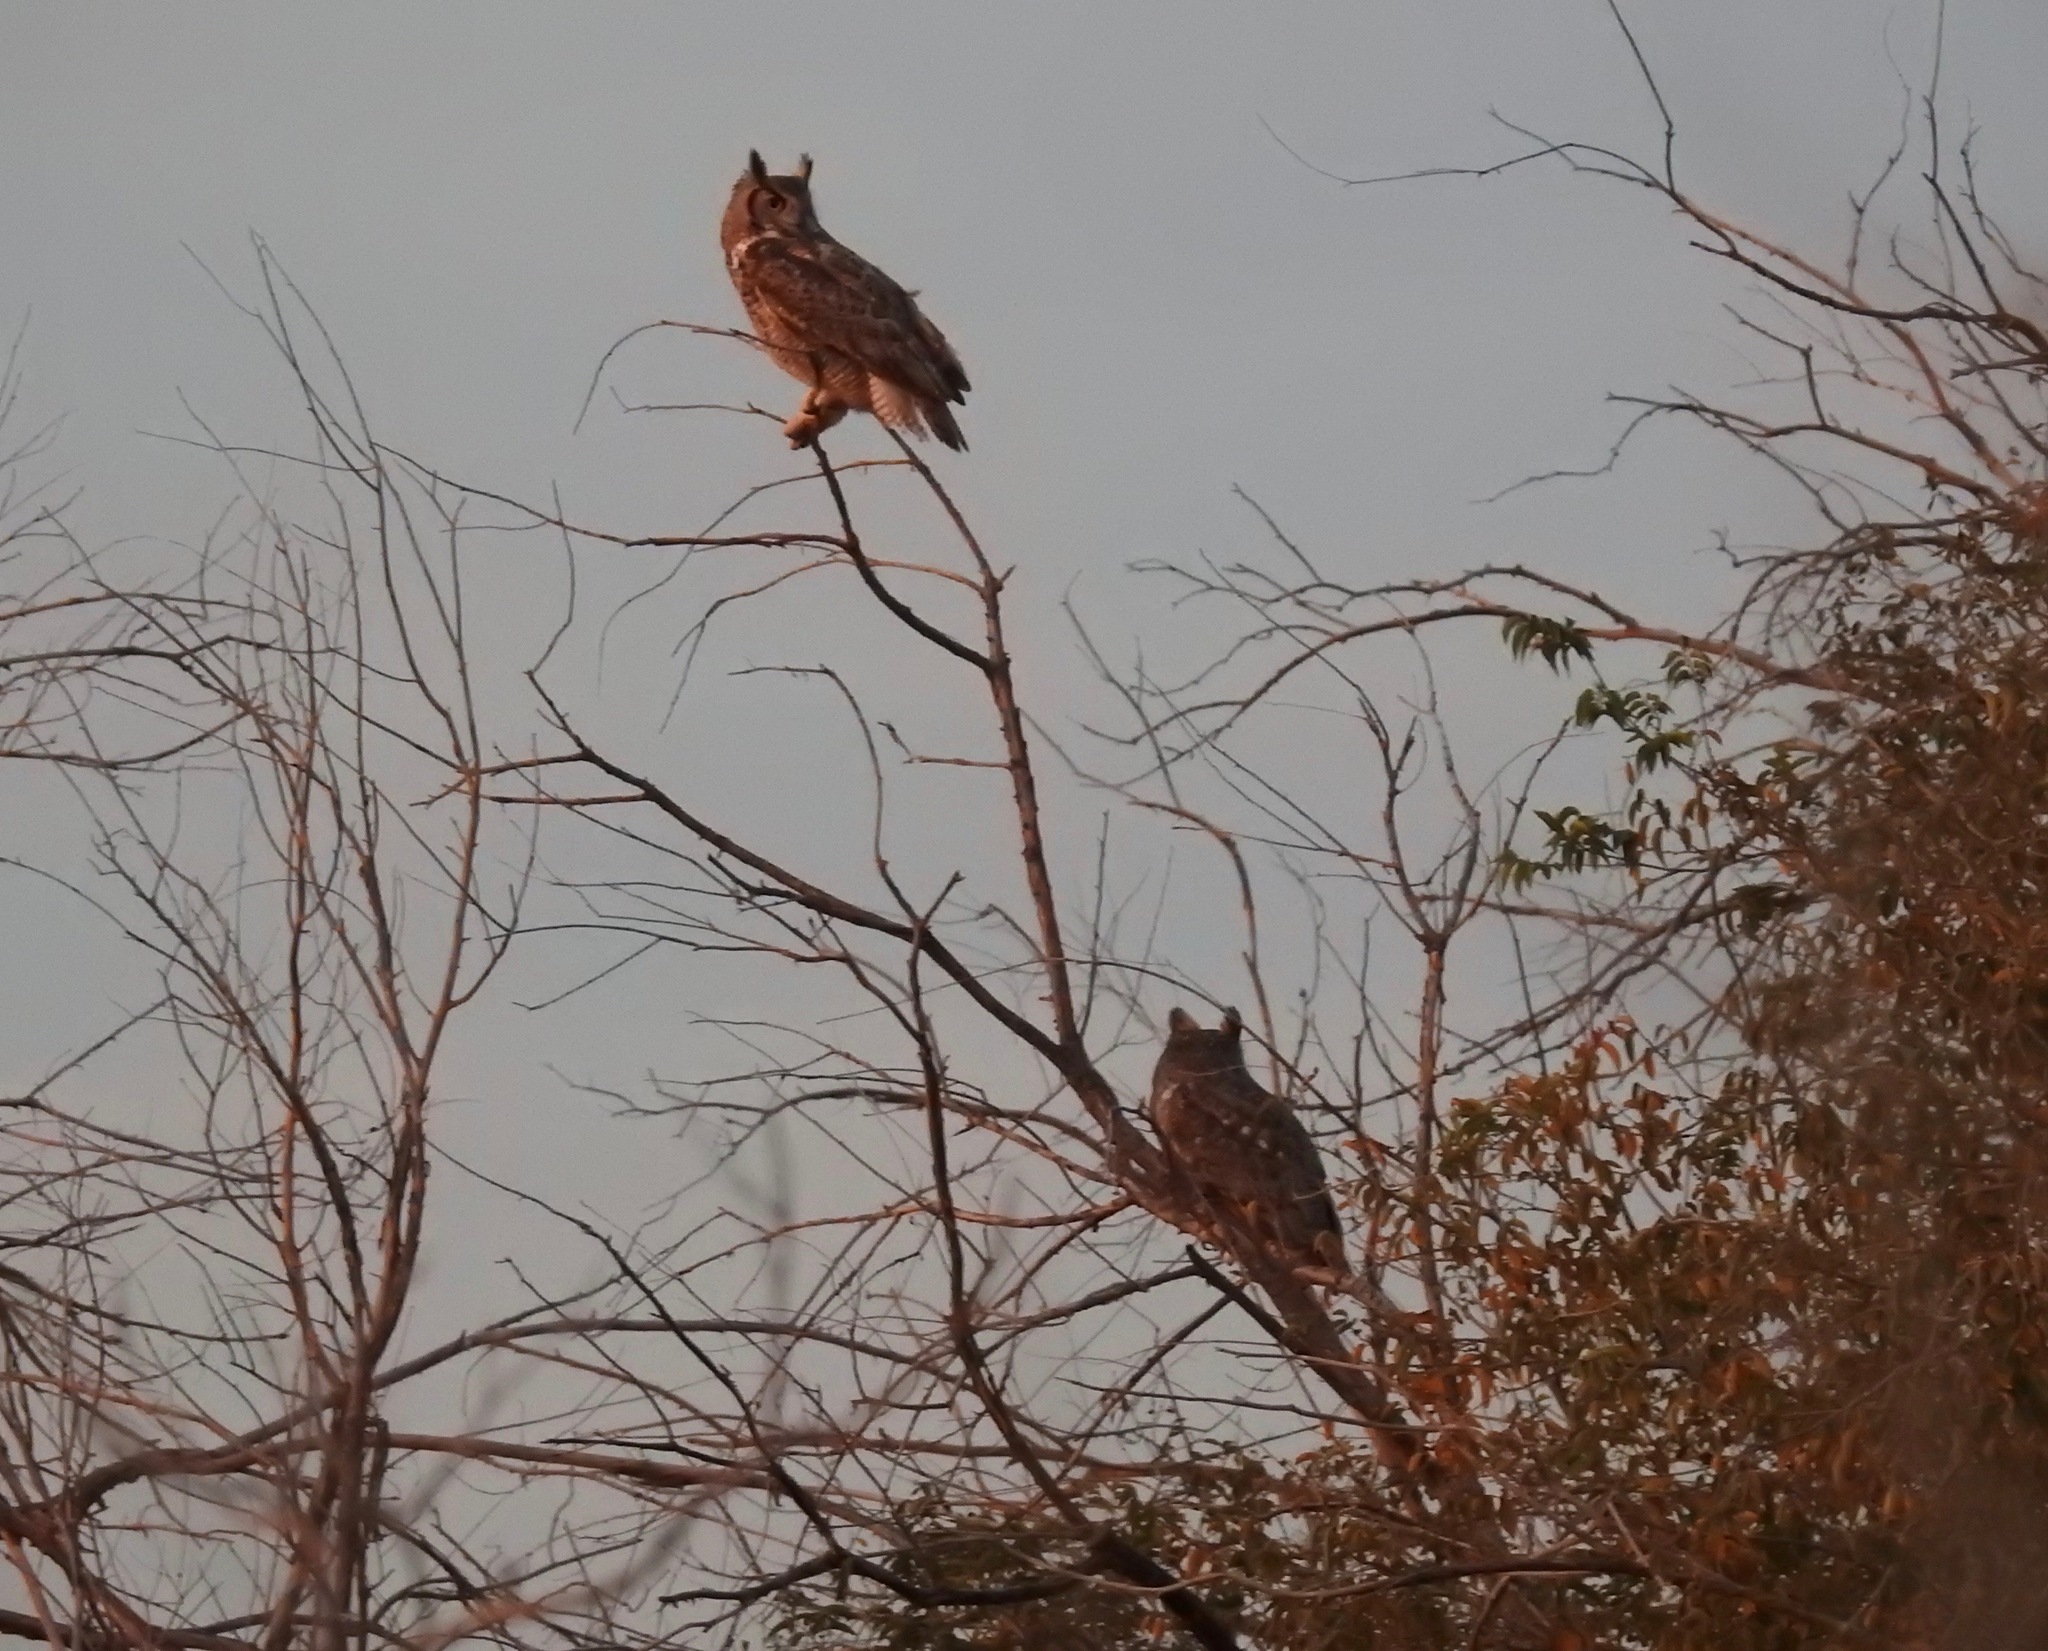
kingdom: Animalia
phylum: Chordata
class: Aves
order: Strigiformes
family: Strigidae
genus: Bubo
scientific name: Bubo virginianus
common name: Great horned owl
